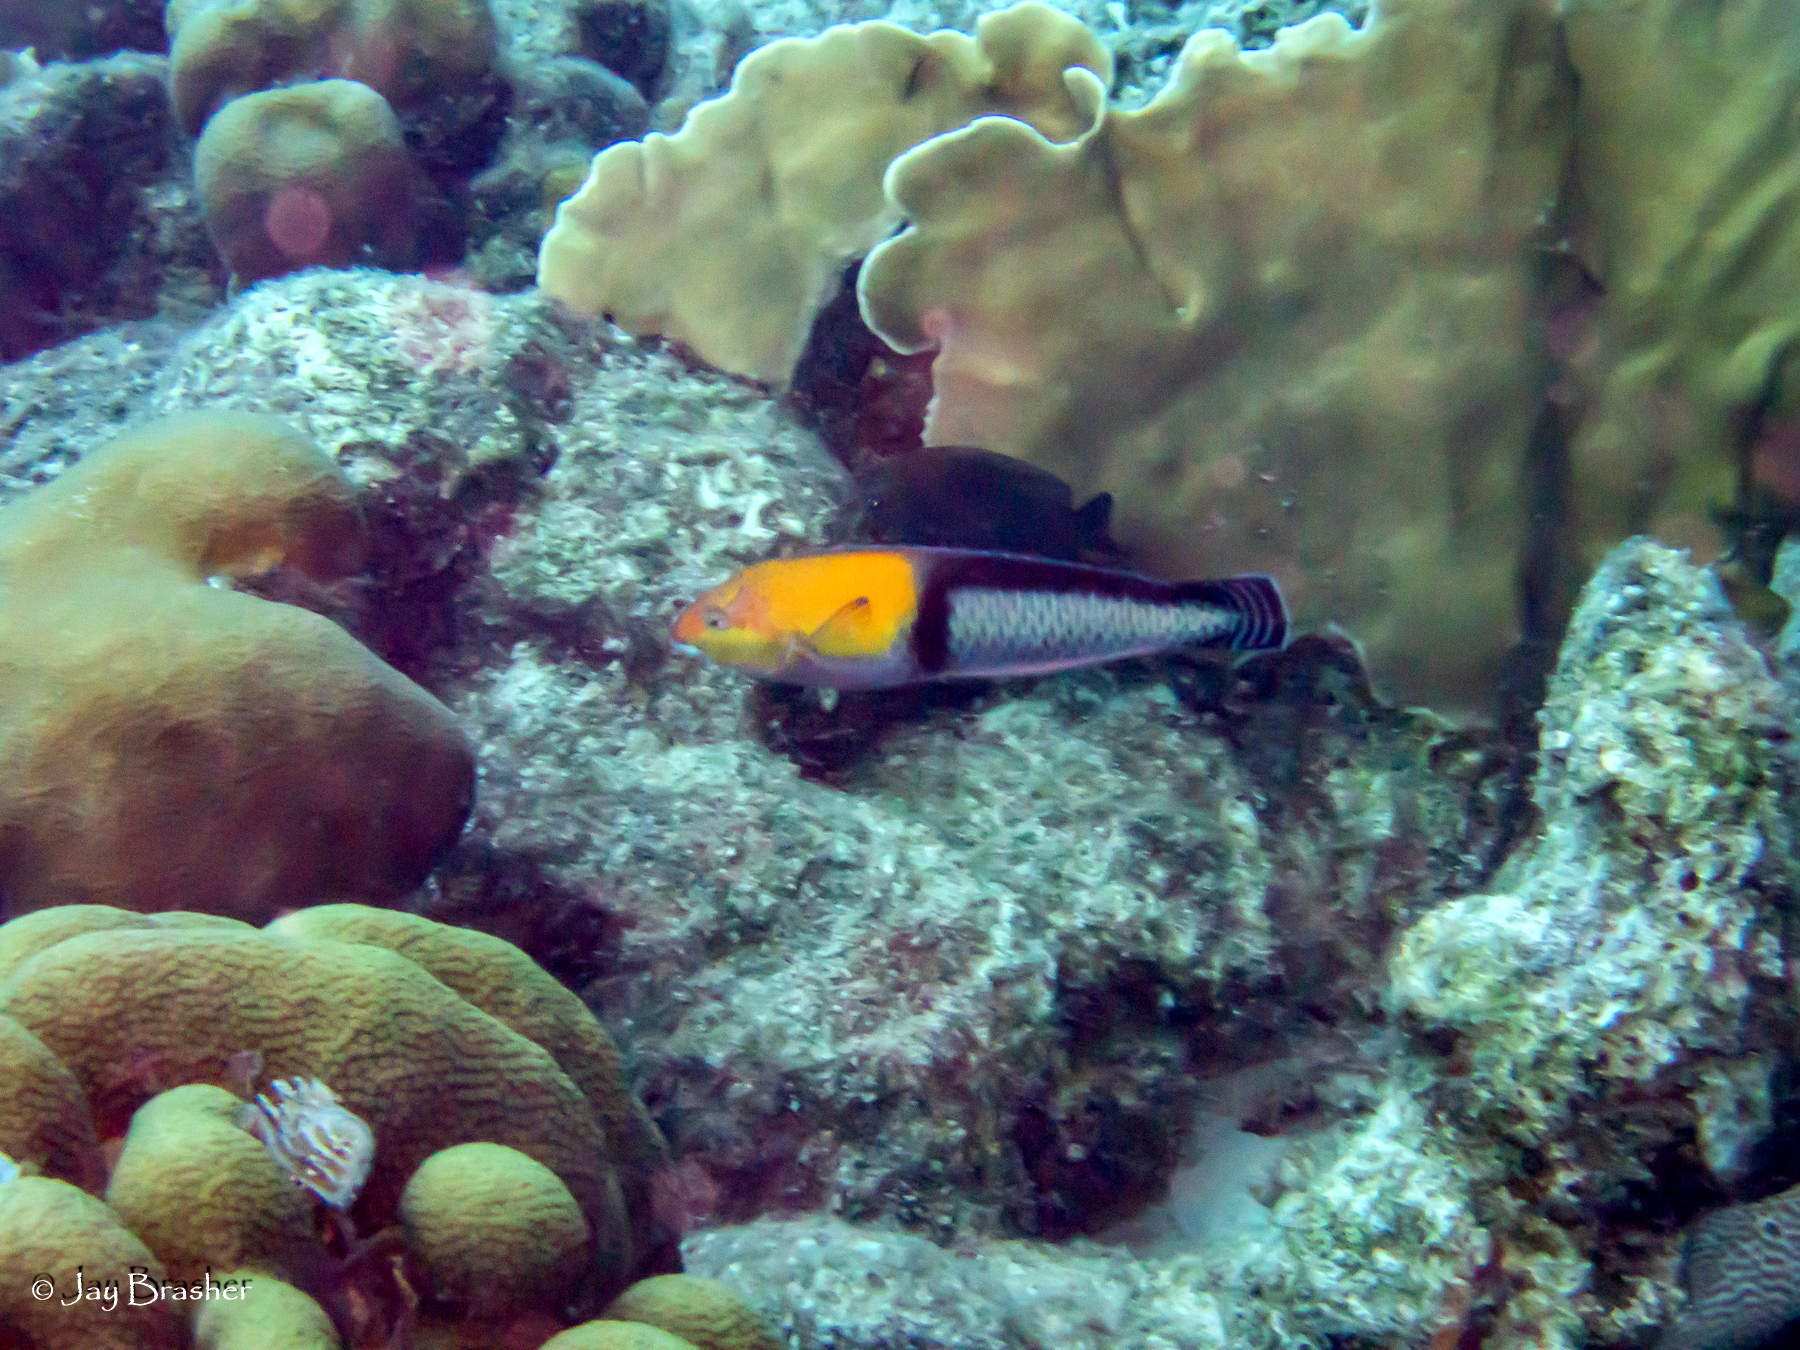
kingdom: Animalia
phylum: Chordata
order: Perciformes
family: Labridae
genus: Halichoeres
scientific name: Halichoeres garnoti
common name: Yellowhead wrasse
